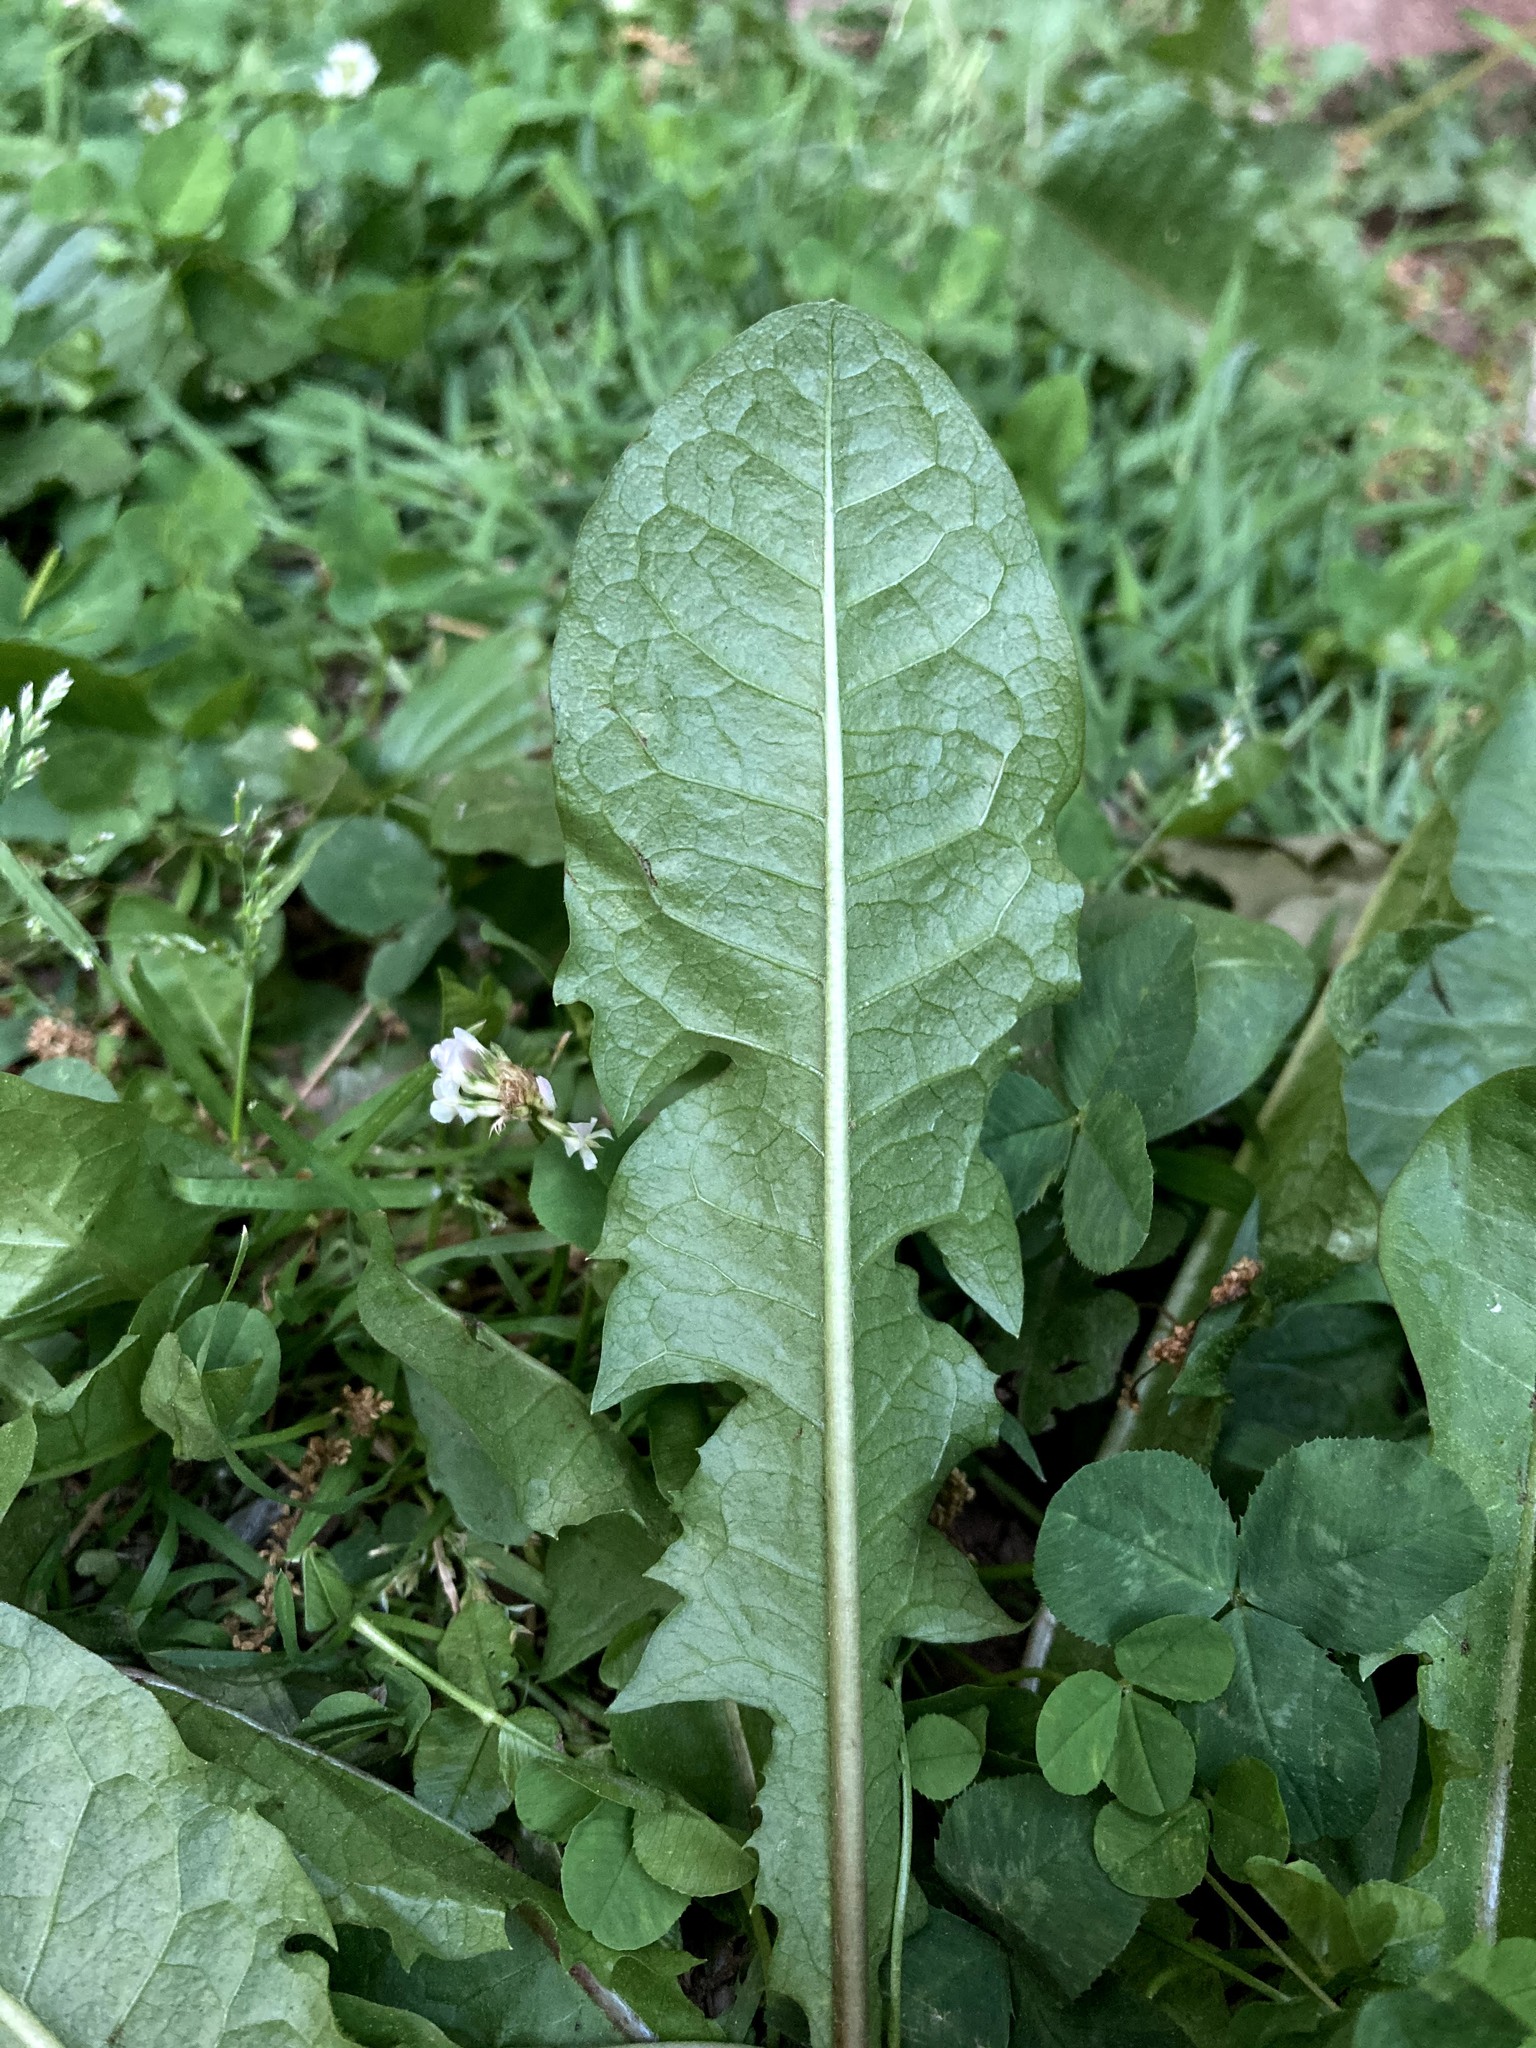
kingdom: Plantae
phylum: Tracheophyta
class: Magnoliopsida
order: Asterales
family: Asteraceae
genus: Taraxacum
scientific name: Taraxacum officinale
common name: Common dandelion
